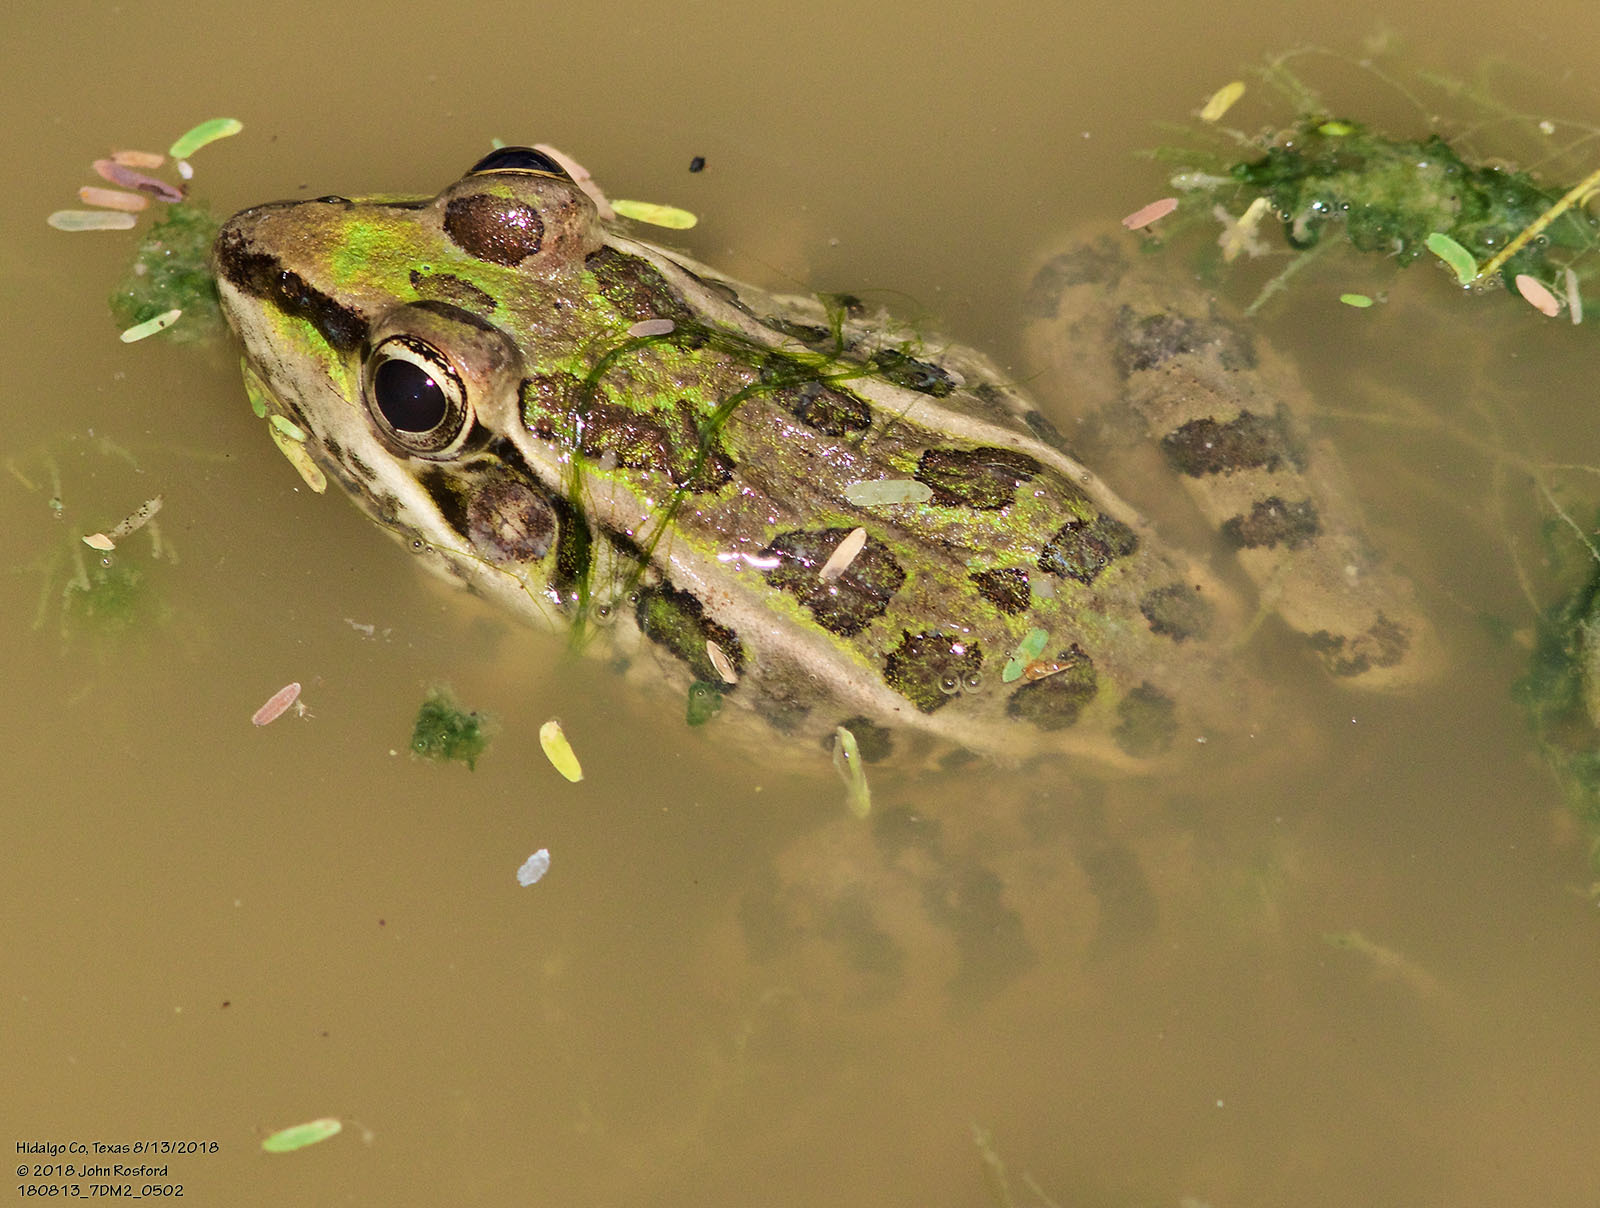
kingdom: Animalia
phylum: Chordata
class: Amphibia
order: Anura
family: Ranidae
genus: Lithobates
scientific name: Lithobates berlandieri
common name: Rio grande leopard frog
